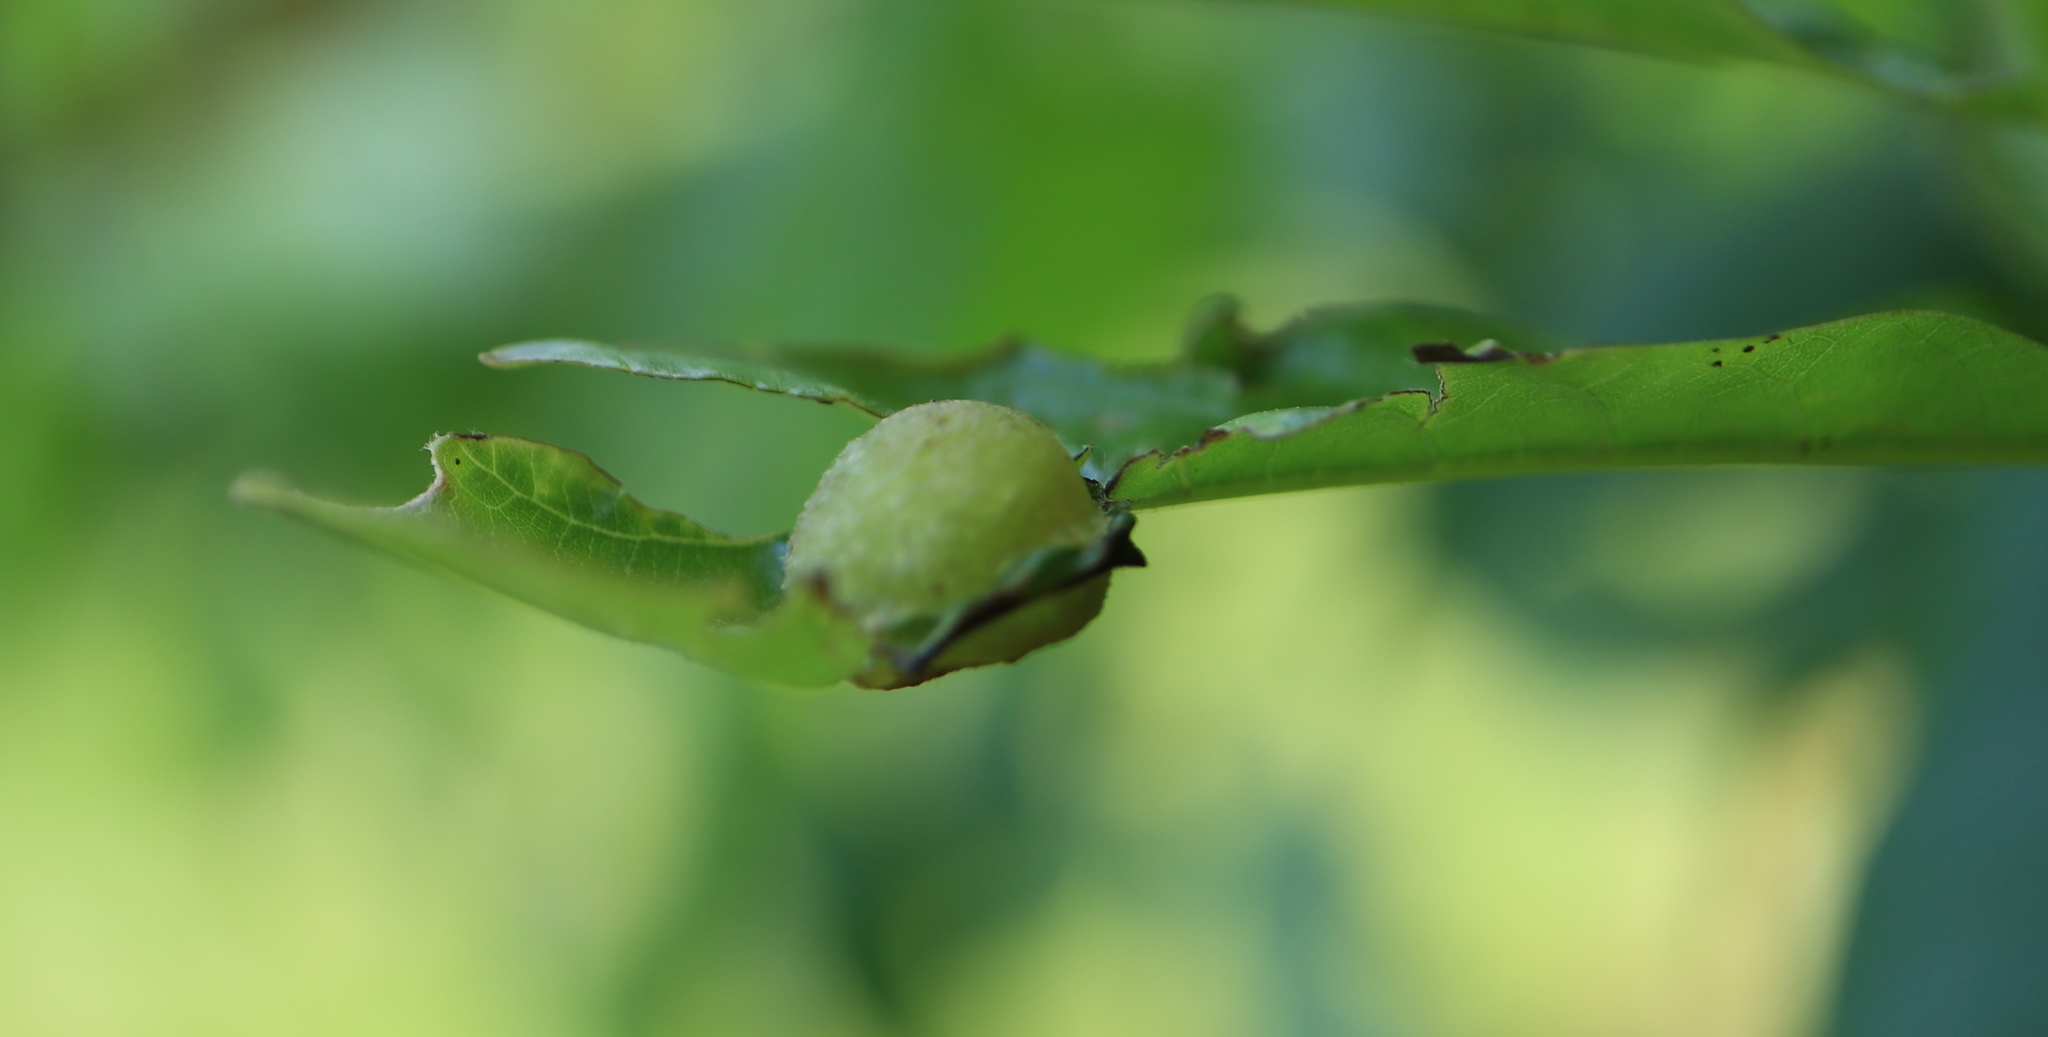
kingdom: Animalia
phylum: Arthropoda
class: Insecta
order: Hymenoptera
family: Cynipidae
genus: Dryocosmus
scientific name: Dryocosmus quercuspalustris
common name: Succulent oak gall wasp
